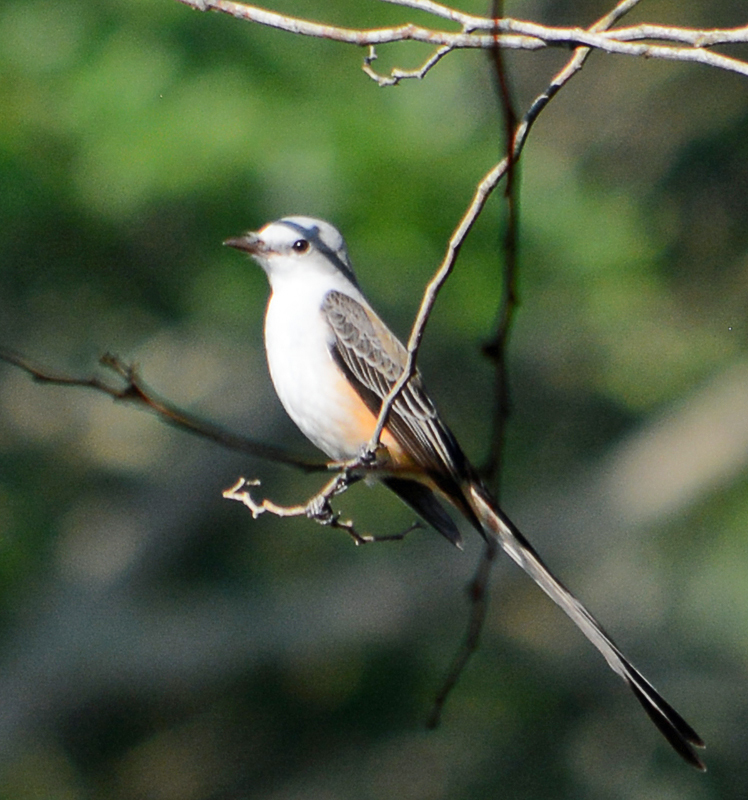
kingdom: Animalia
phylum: Chordata
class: Aves
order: Passeriformes
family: Tyrannidae
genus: Tyrannus
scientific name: Tyrannus forficatus
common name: Scissor-tailed flycatcher
